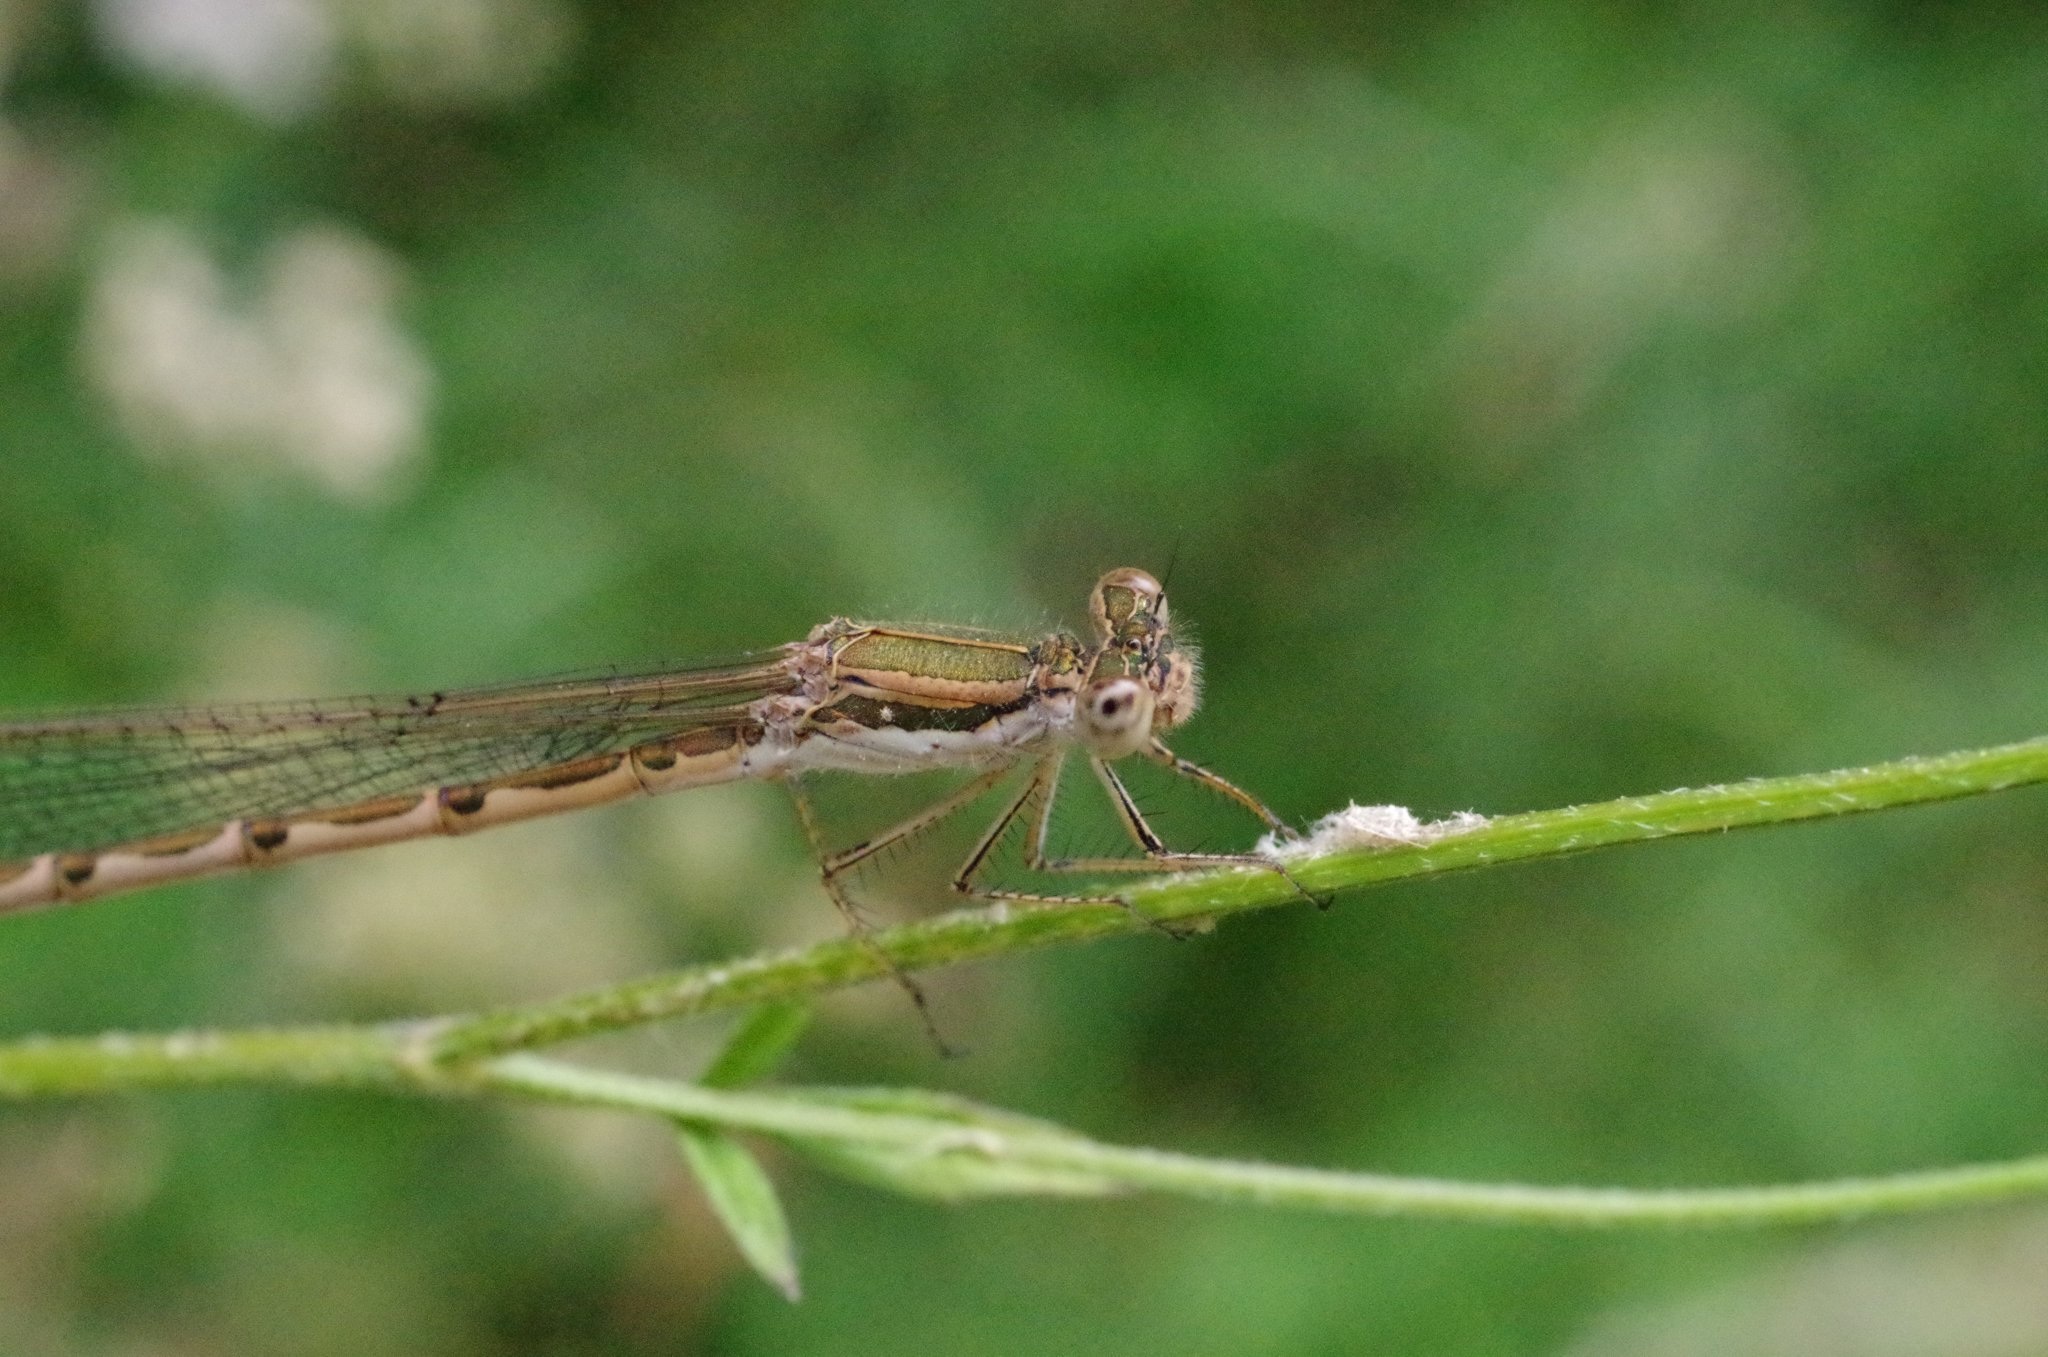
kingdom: Animalia
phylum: Arthropoda
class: Insecta
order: Odonata
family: Lestidae
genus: Sympecma
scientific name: Sympecma fusca
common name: Common winter damsel
